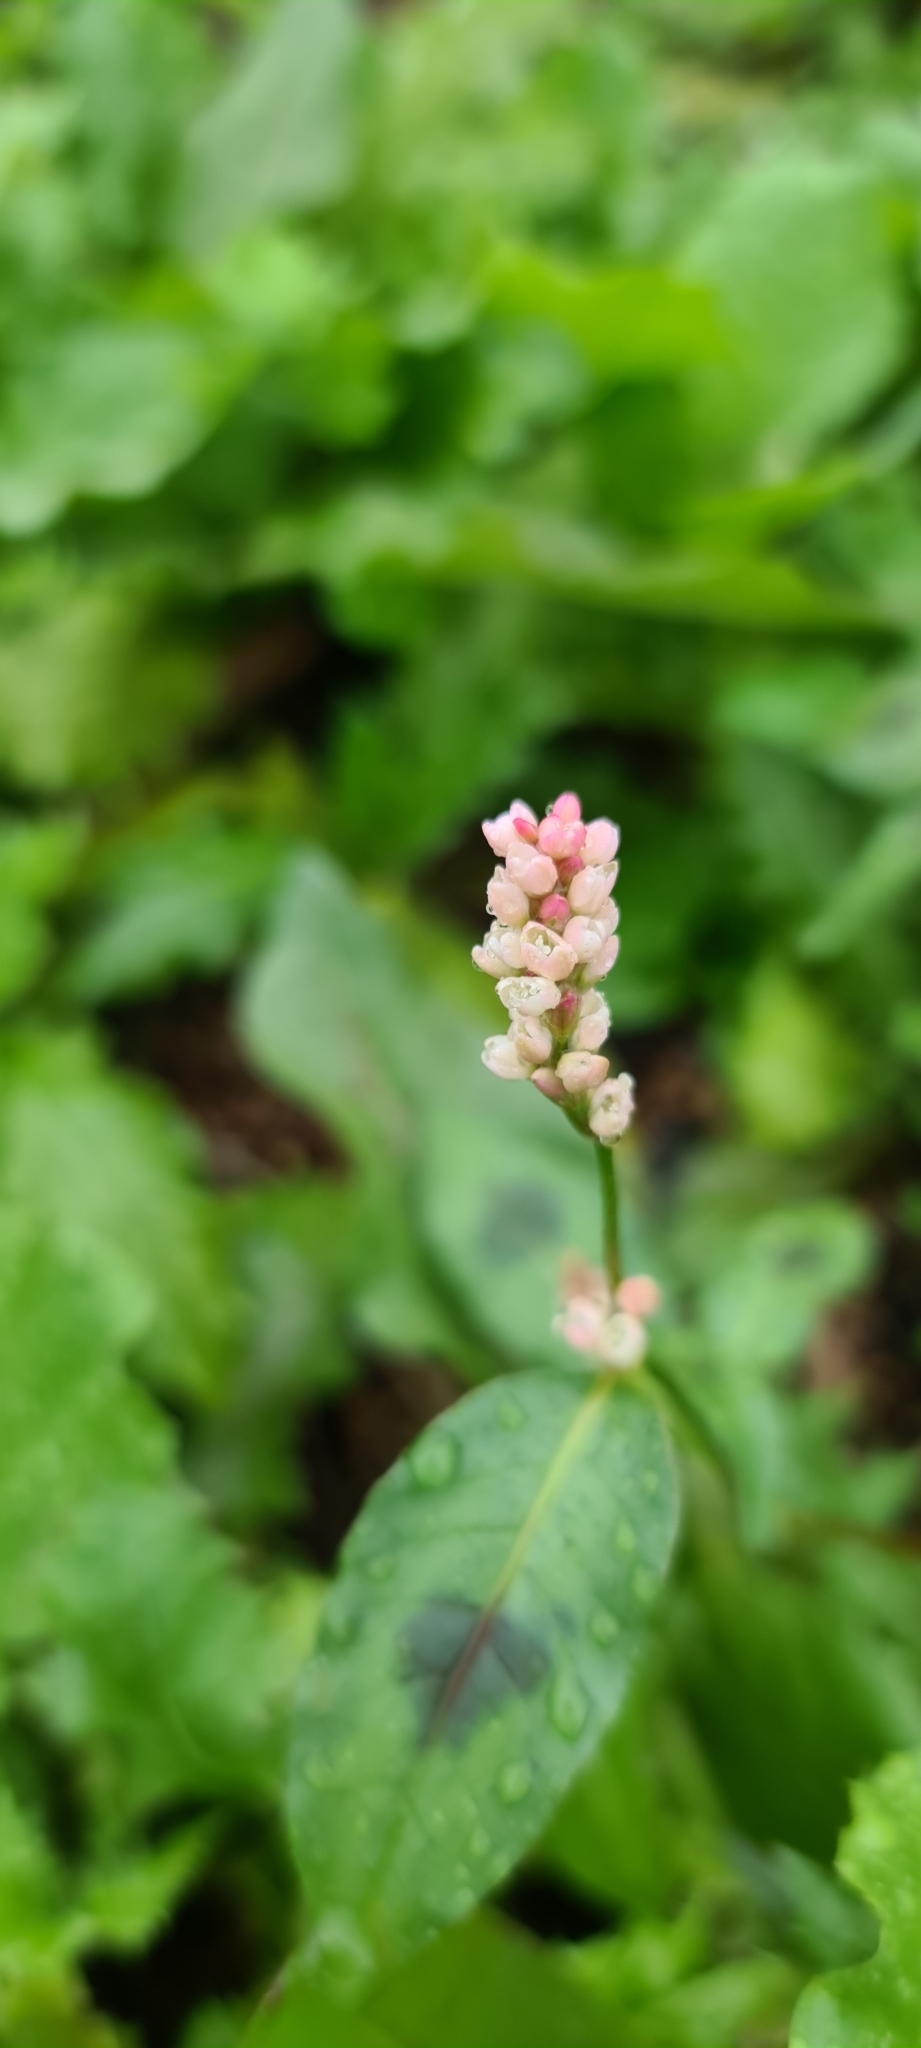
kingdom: Plantae
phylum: Tracheophyta
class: Magnoliopsida
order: Caryophyllales
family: Polygonaceae
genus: Persicaria
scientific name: Persicaria maculosa
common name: Redshank
